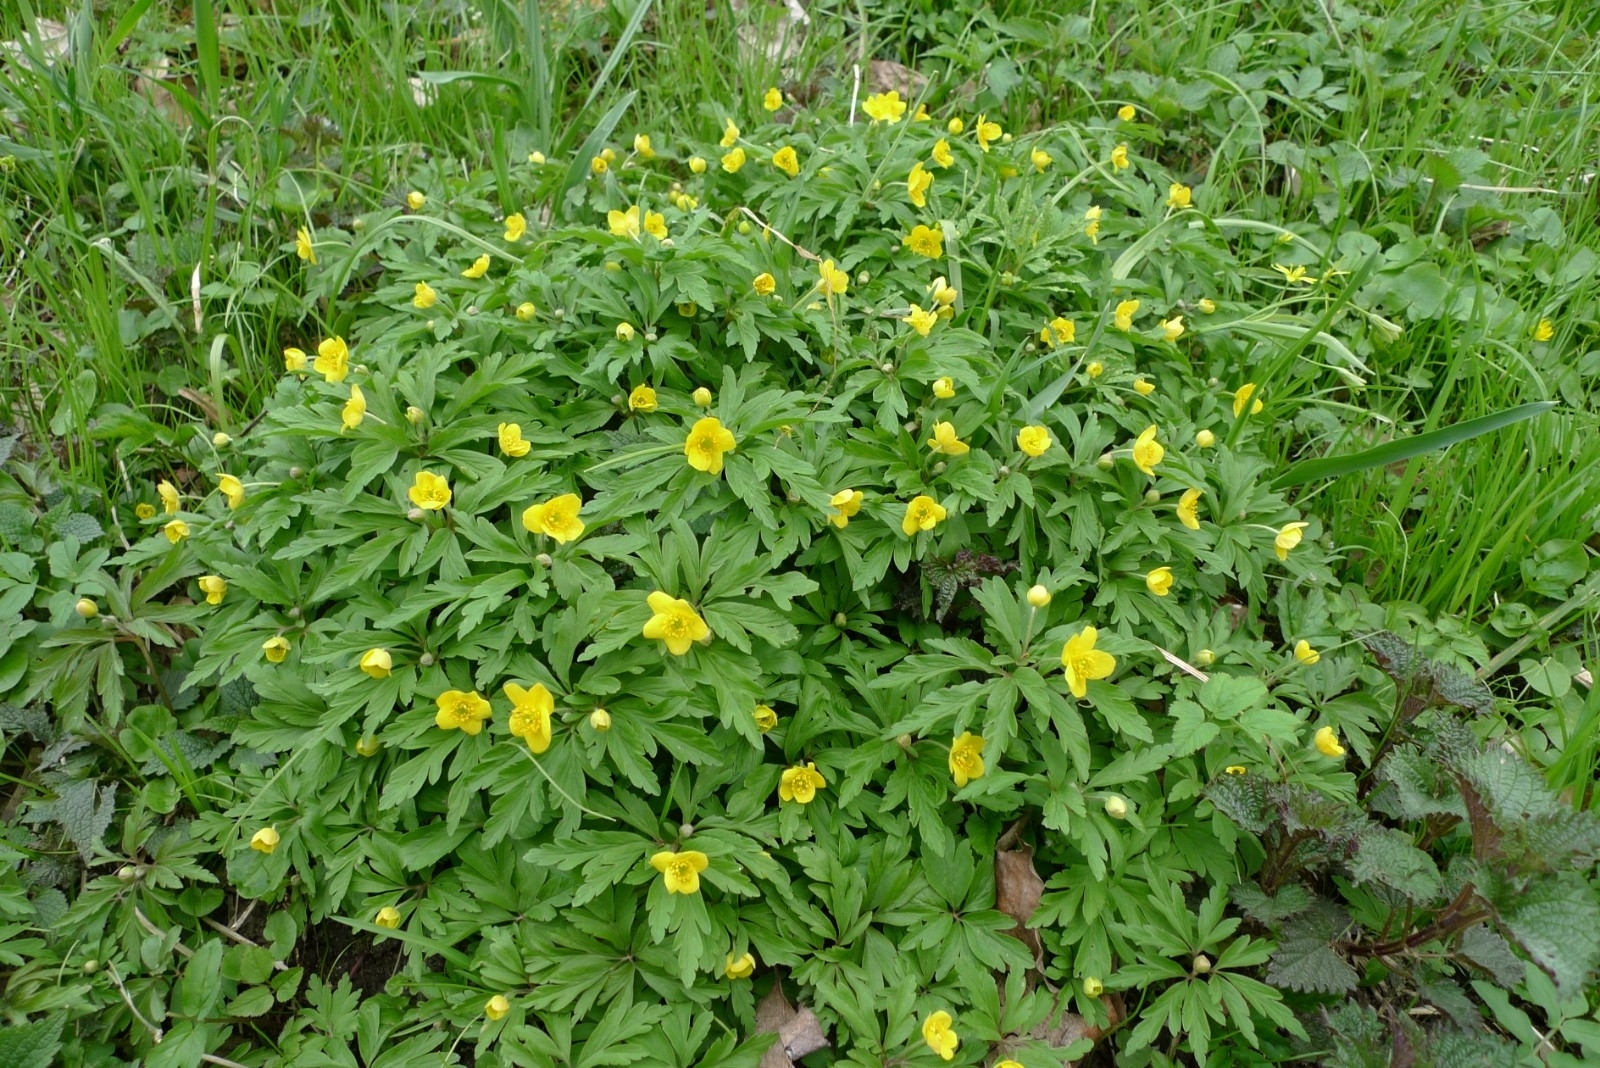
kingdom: Plantae
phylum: Tracheophyta
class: Magnoliopsida
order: Ranunculales
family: Ranunculaceae
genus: Anemone
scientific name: Anemone ranunculoides
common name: Yellow anemone
